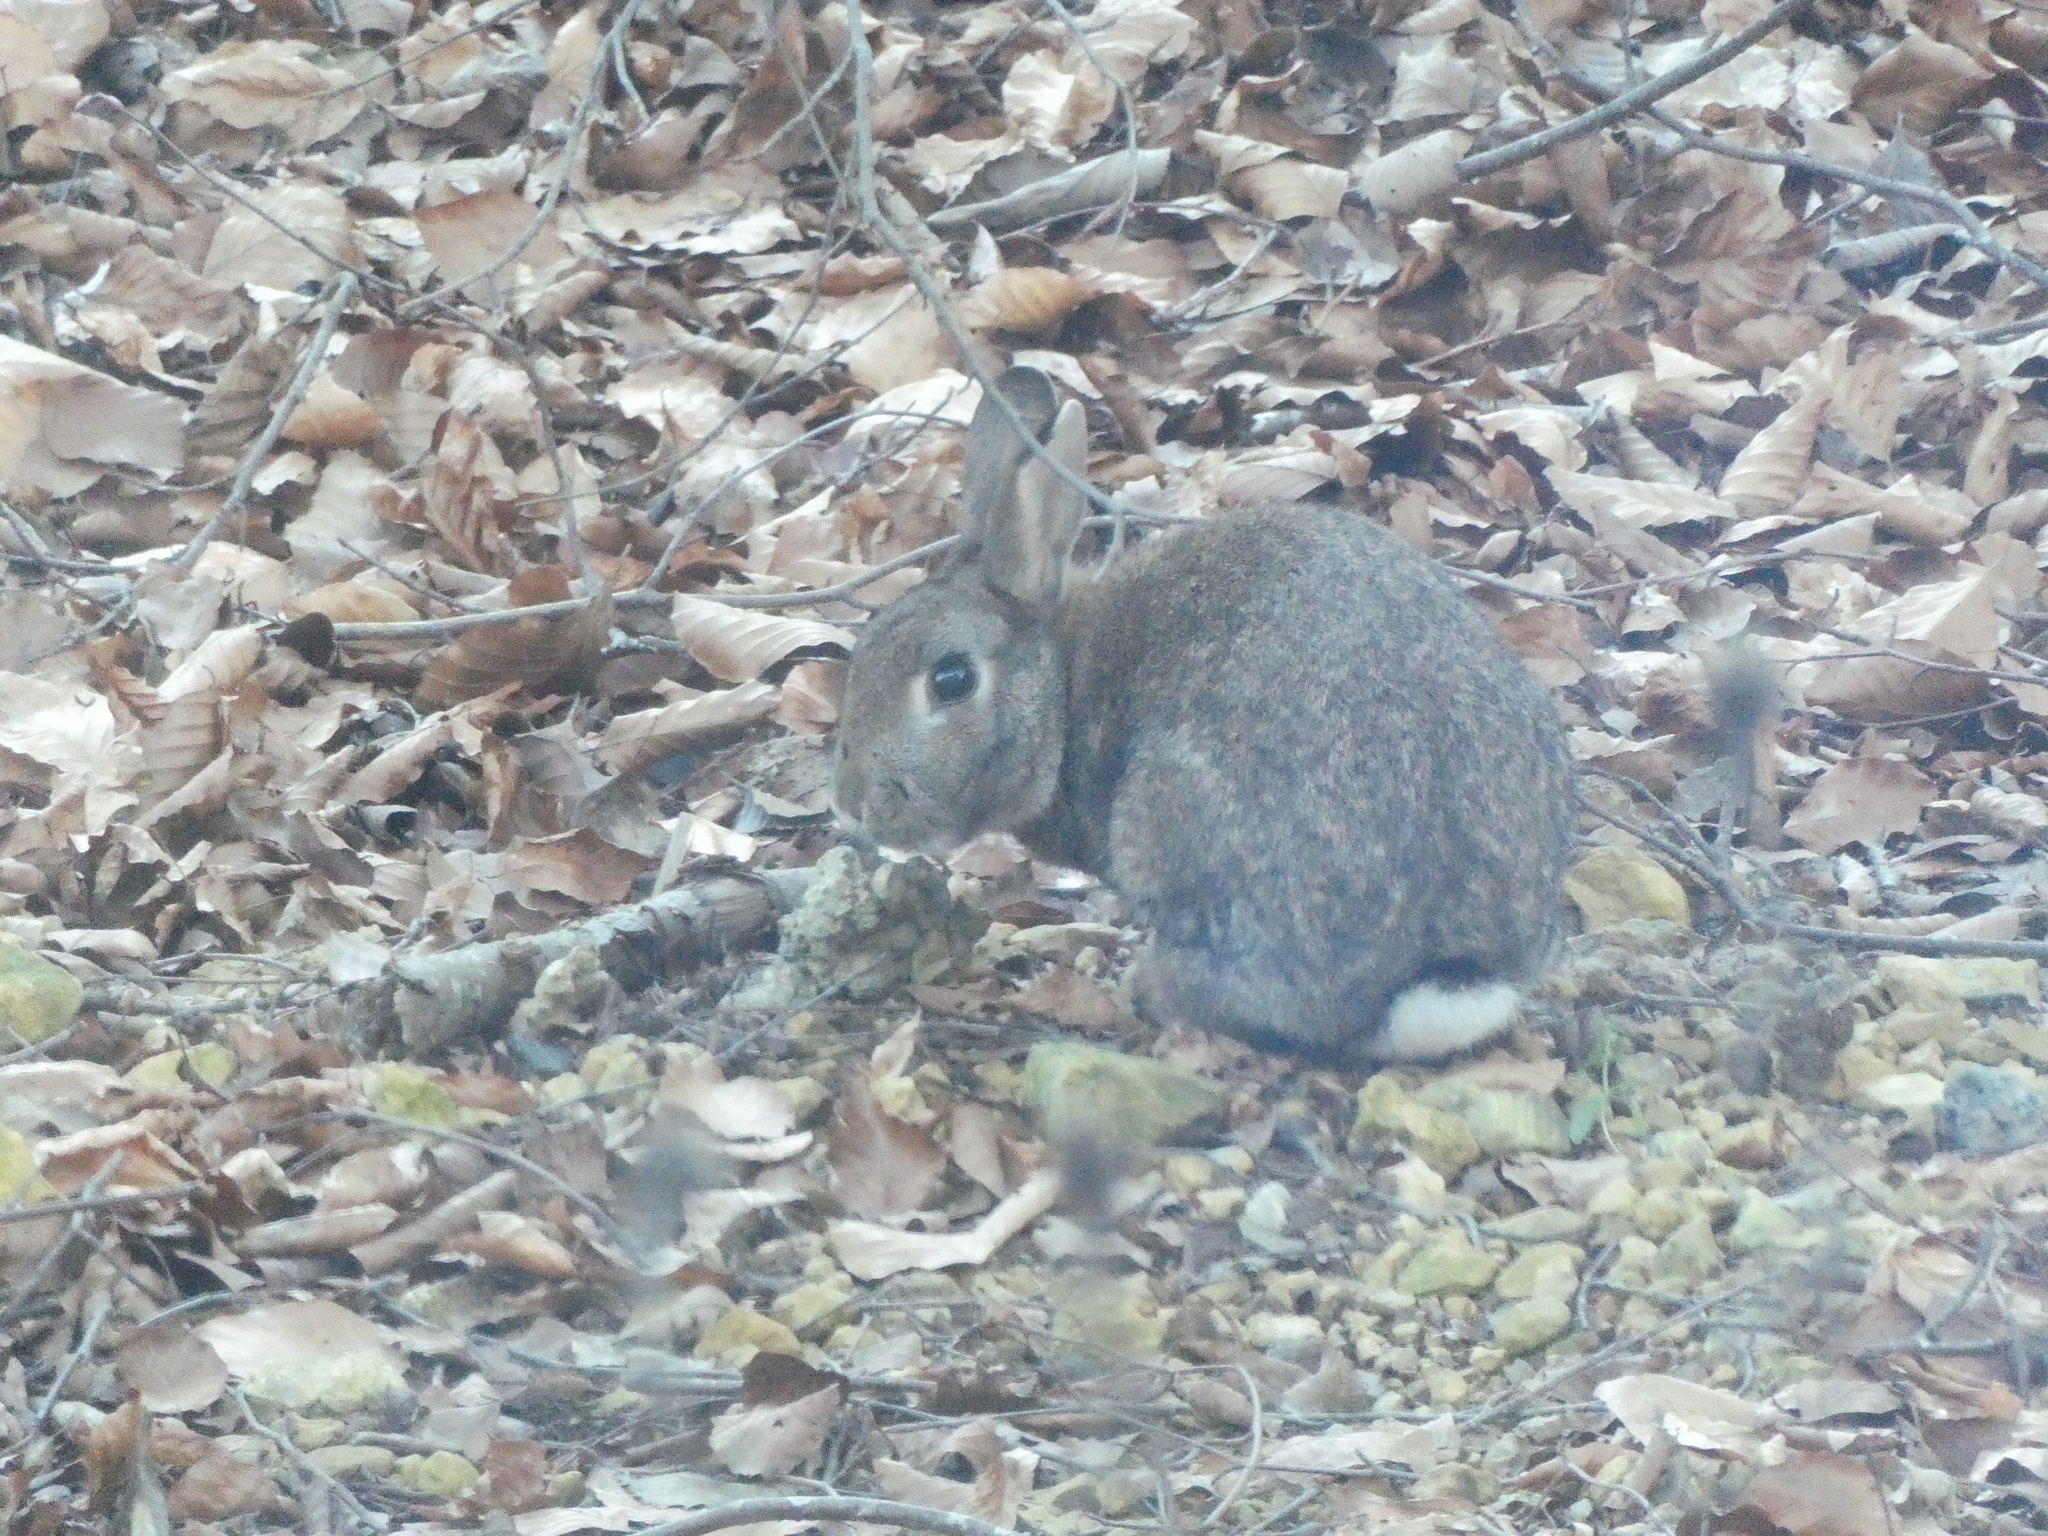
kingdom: Animalia
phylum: Chordata
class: Mammalia
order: Lagomorpha
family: Leporidae
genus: Oryctolagus
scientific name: Oryctolagus cuniculus
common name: European rabbit
